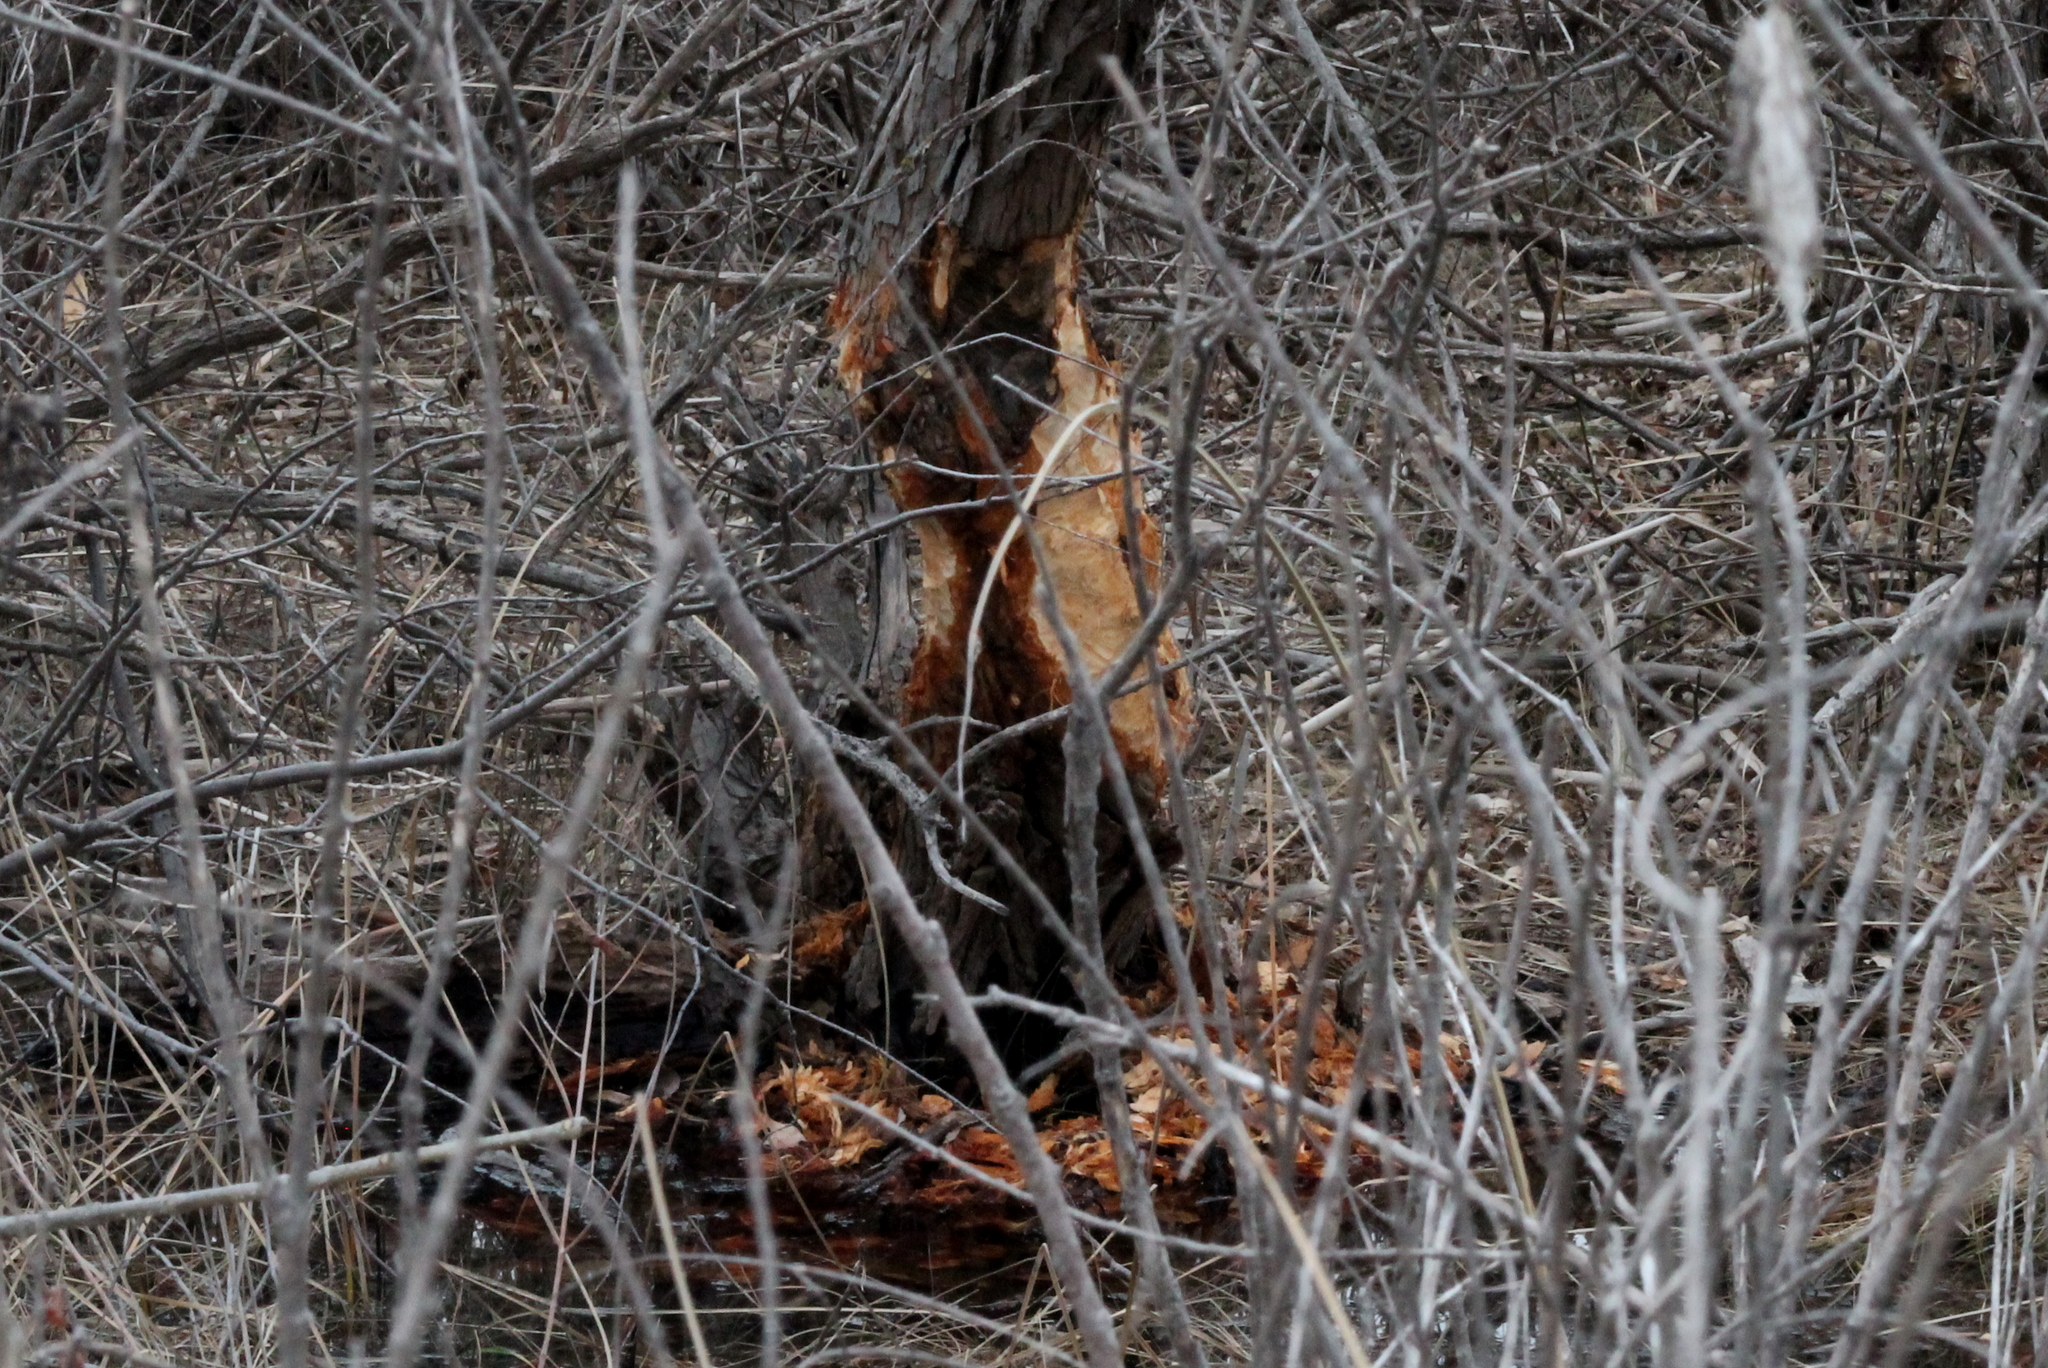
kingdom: Animalia
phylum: Chordata
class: Mammalia
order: Rodentia
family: Castoridae
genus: Castor
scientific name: Castor canadensis
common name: American beaver
